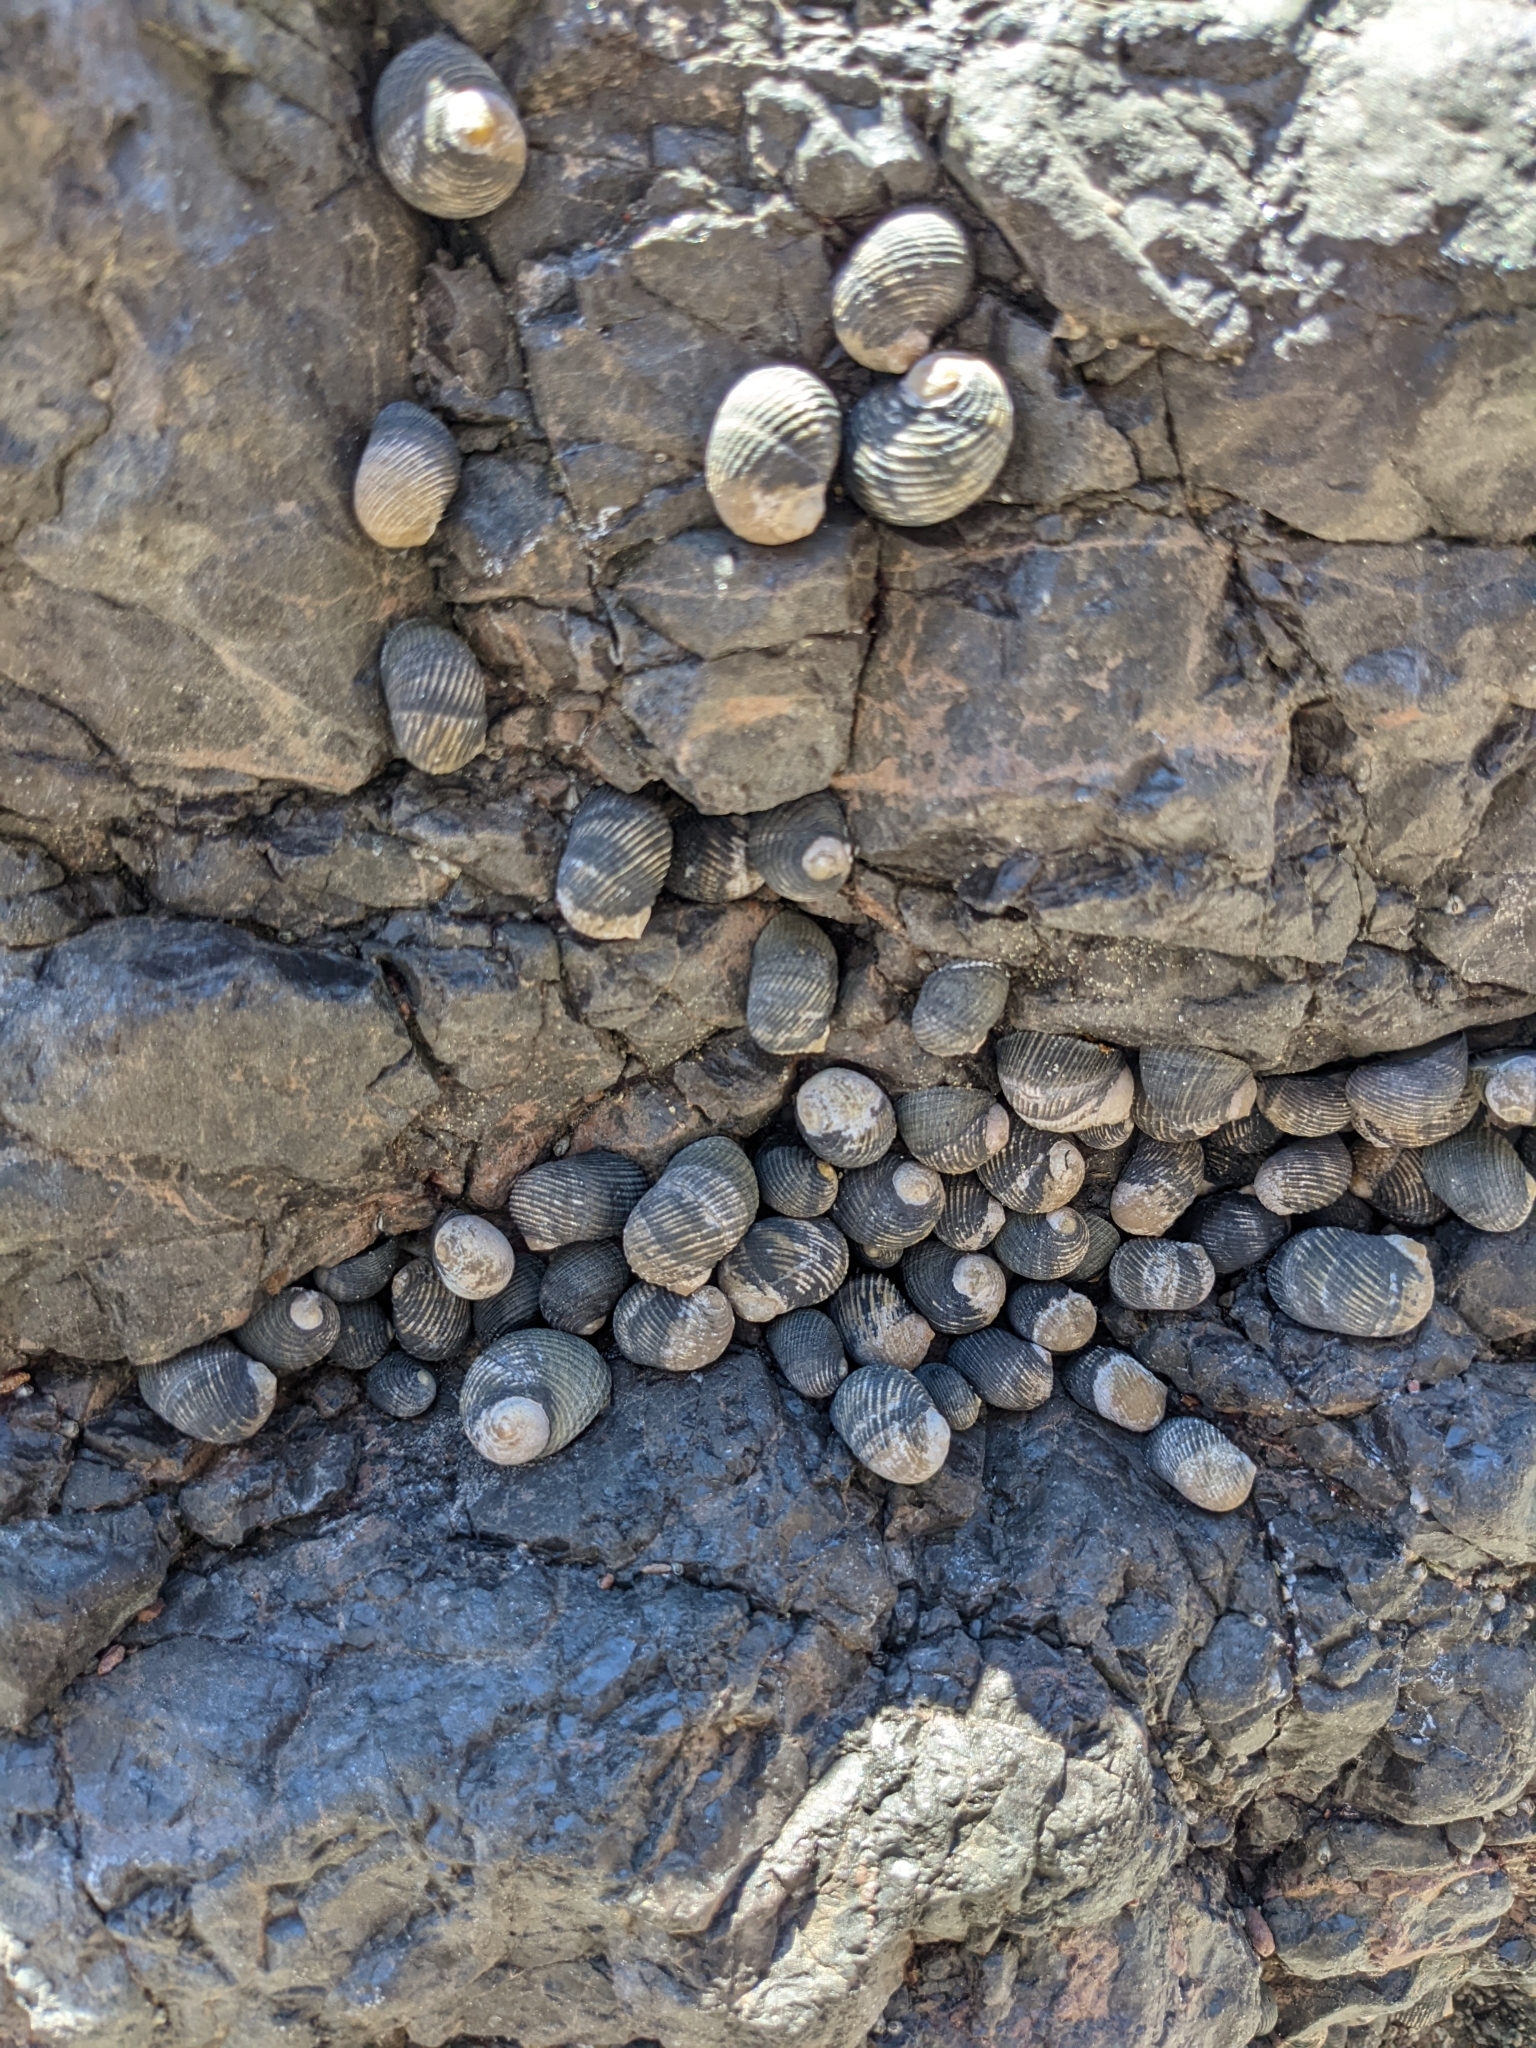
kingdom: Animalia
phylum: Mollusca
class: Gastropoda
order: Cycloneritida
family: Neritidae
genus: Nerita
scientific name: Nerita scabricosta
